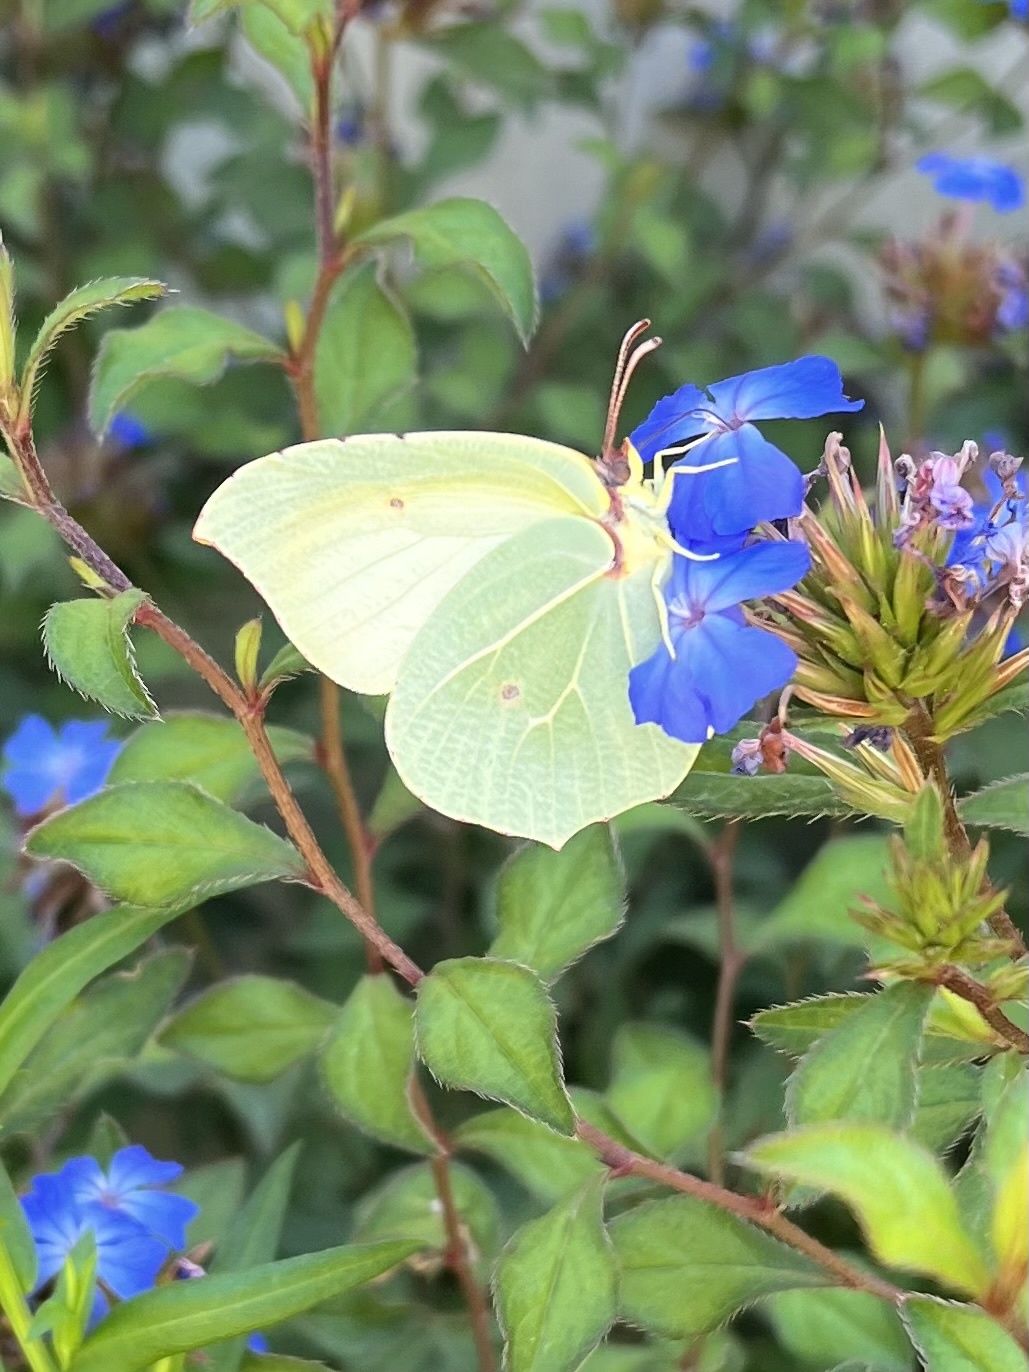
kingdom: Animalia
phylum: Arthropoda
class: Insecta
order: Lepidoptera
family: Pieridae
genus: Gonepteryx
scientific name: Gonepteryx cleopatra
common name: Cleopatra
